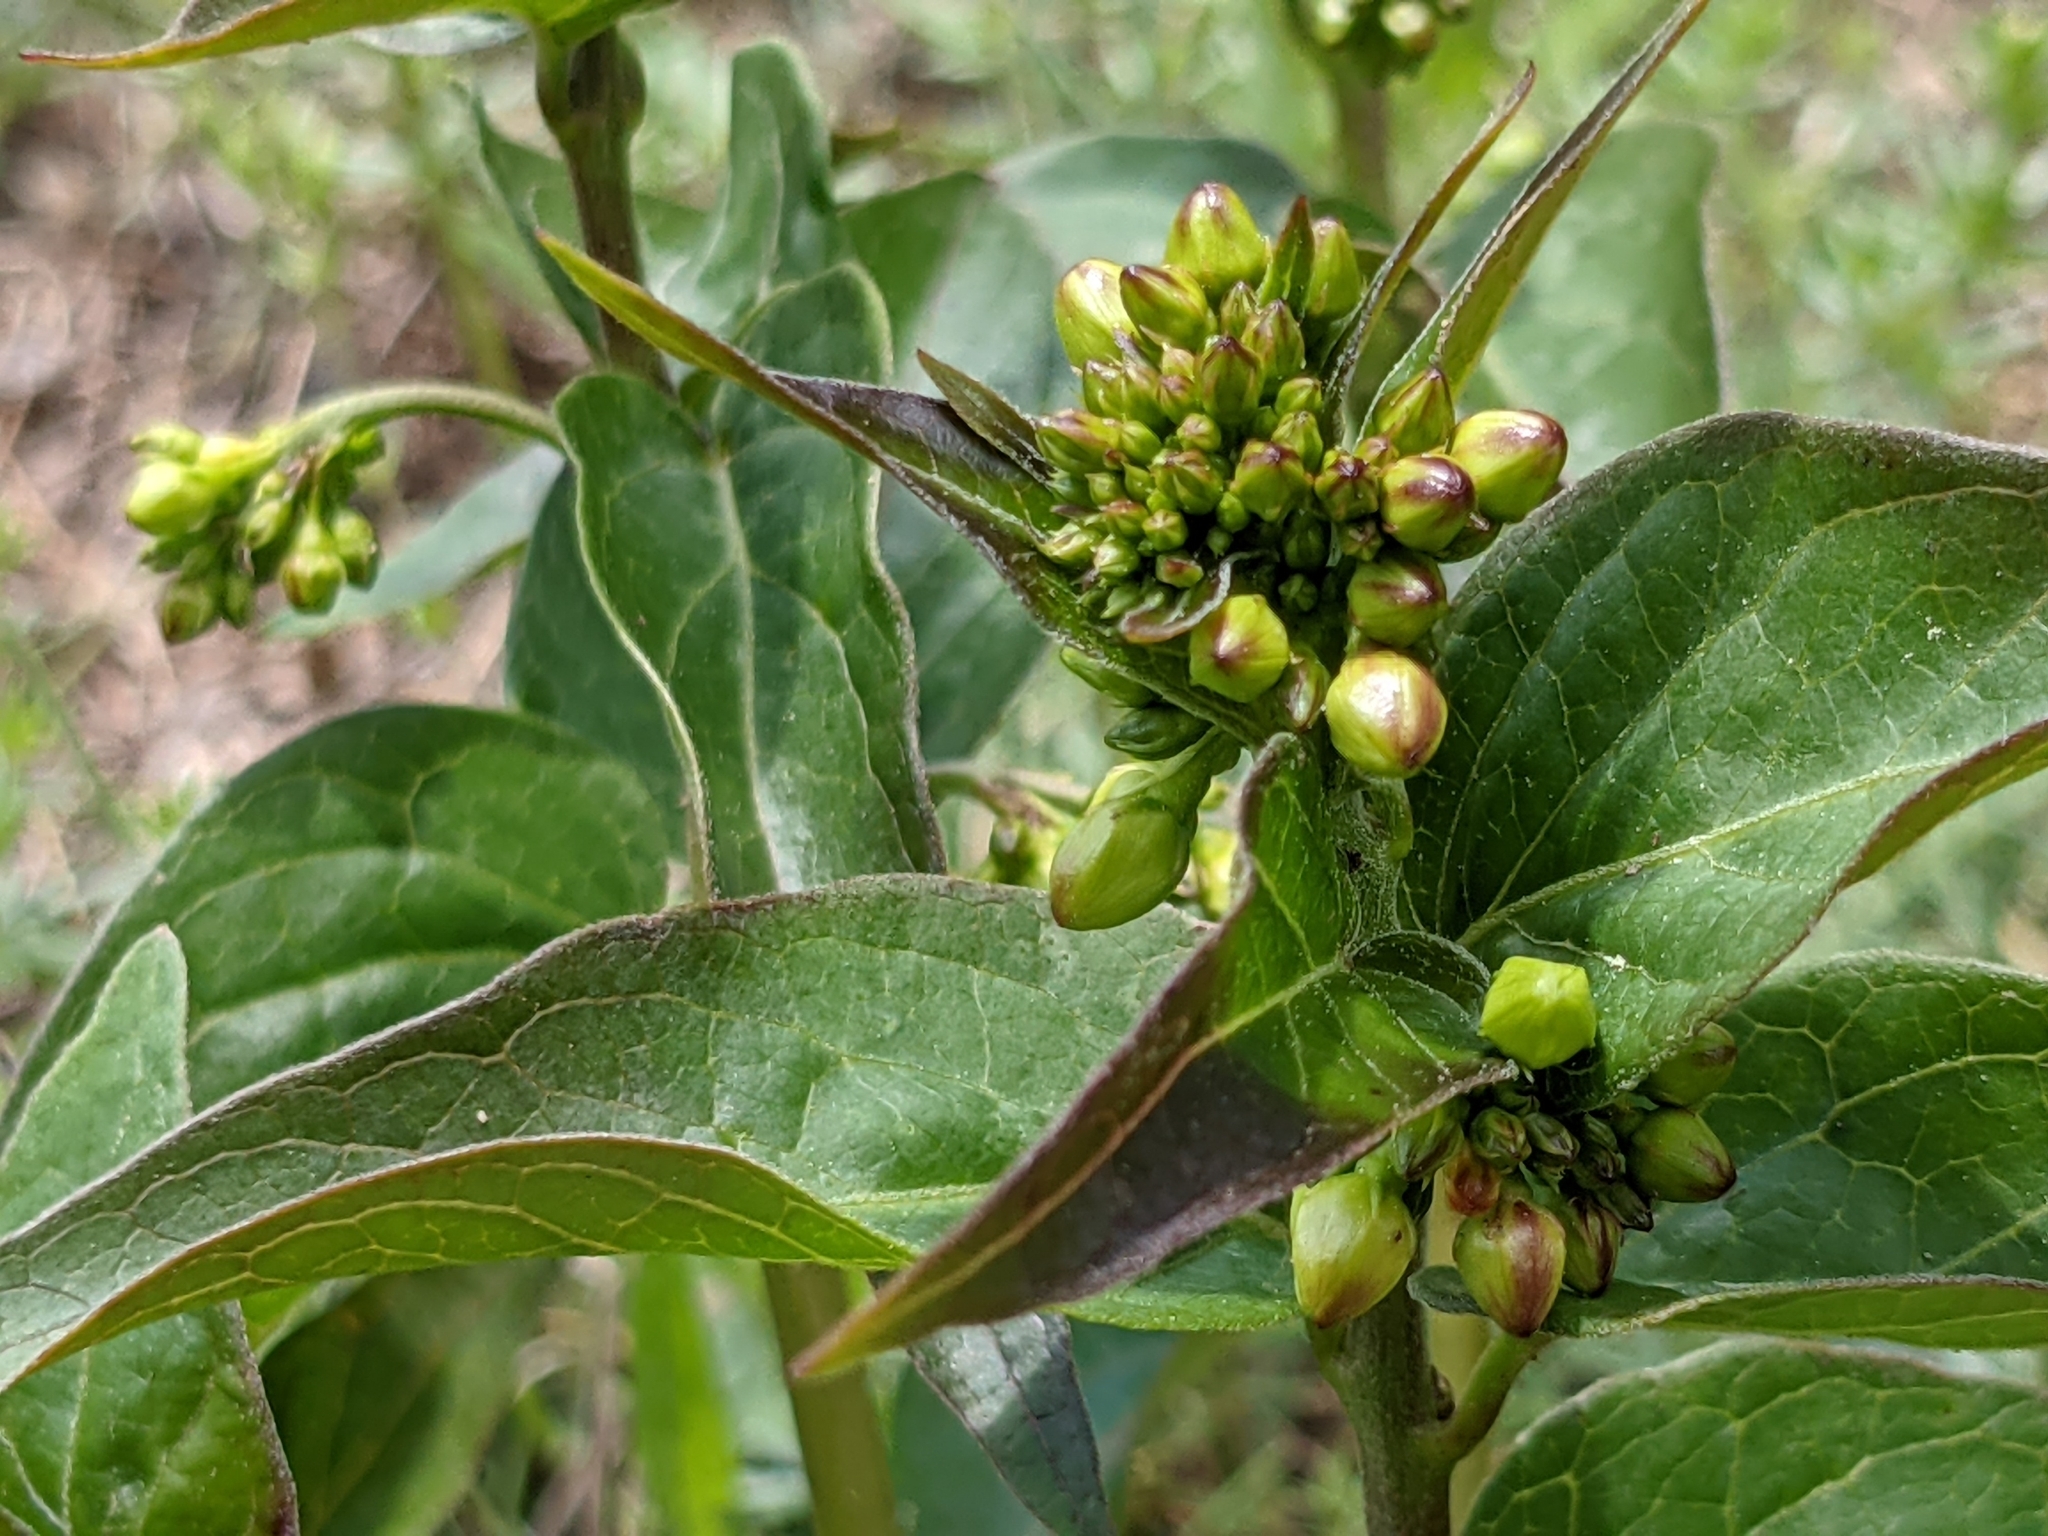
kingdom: Plantae
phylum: Tracheophyta
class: Magnoliopsida
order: Gentianales
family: Apocynaceae
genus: Vincetoxicum
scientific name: Vincetoxicum hirundinaria
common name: White swallowwort
